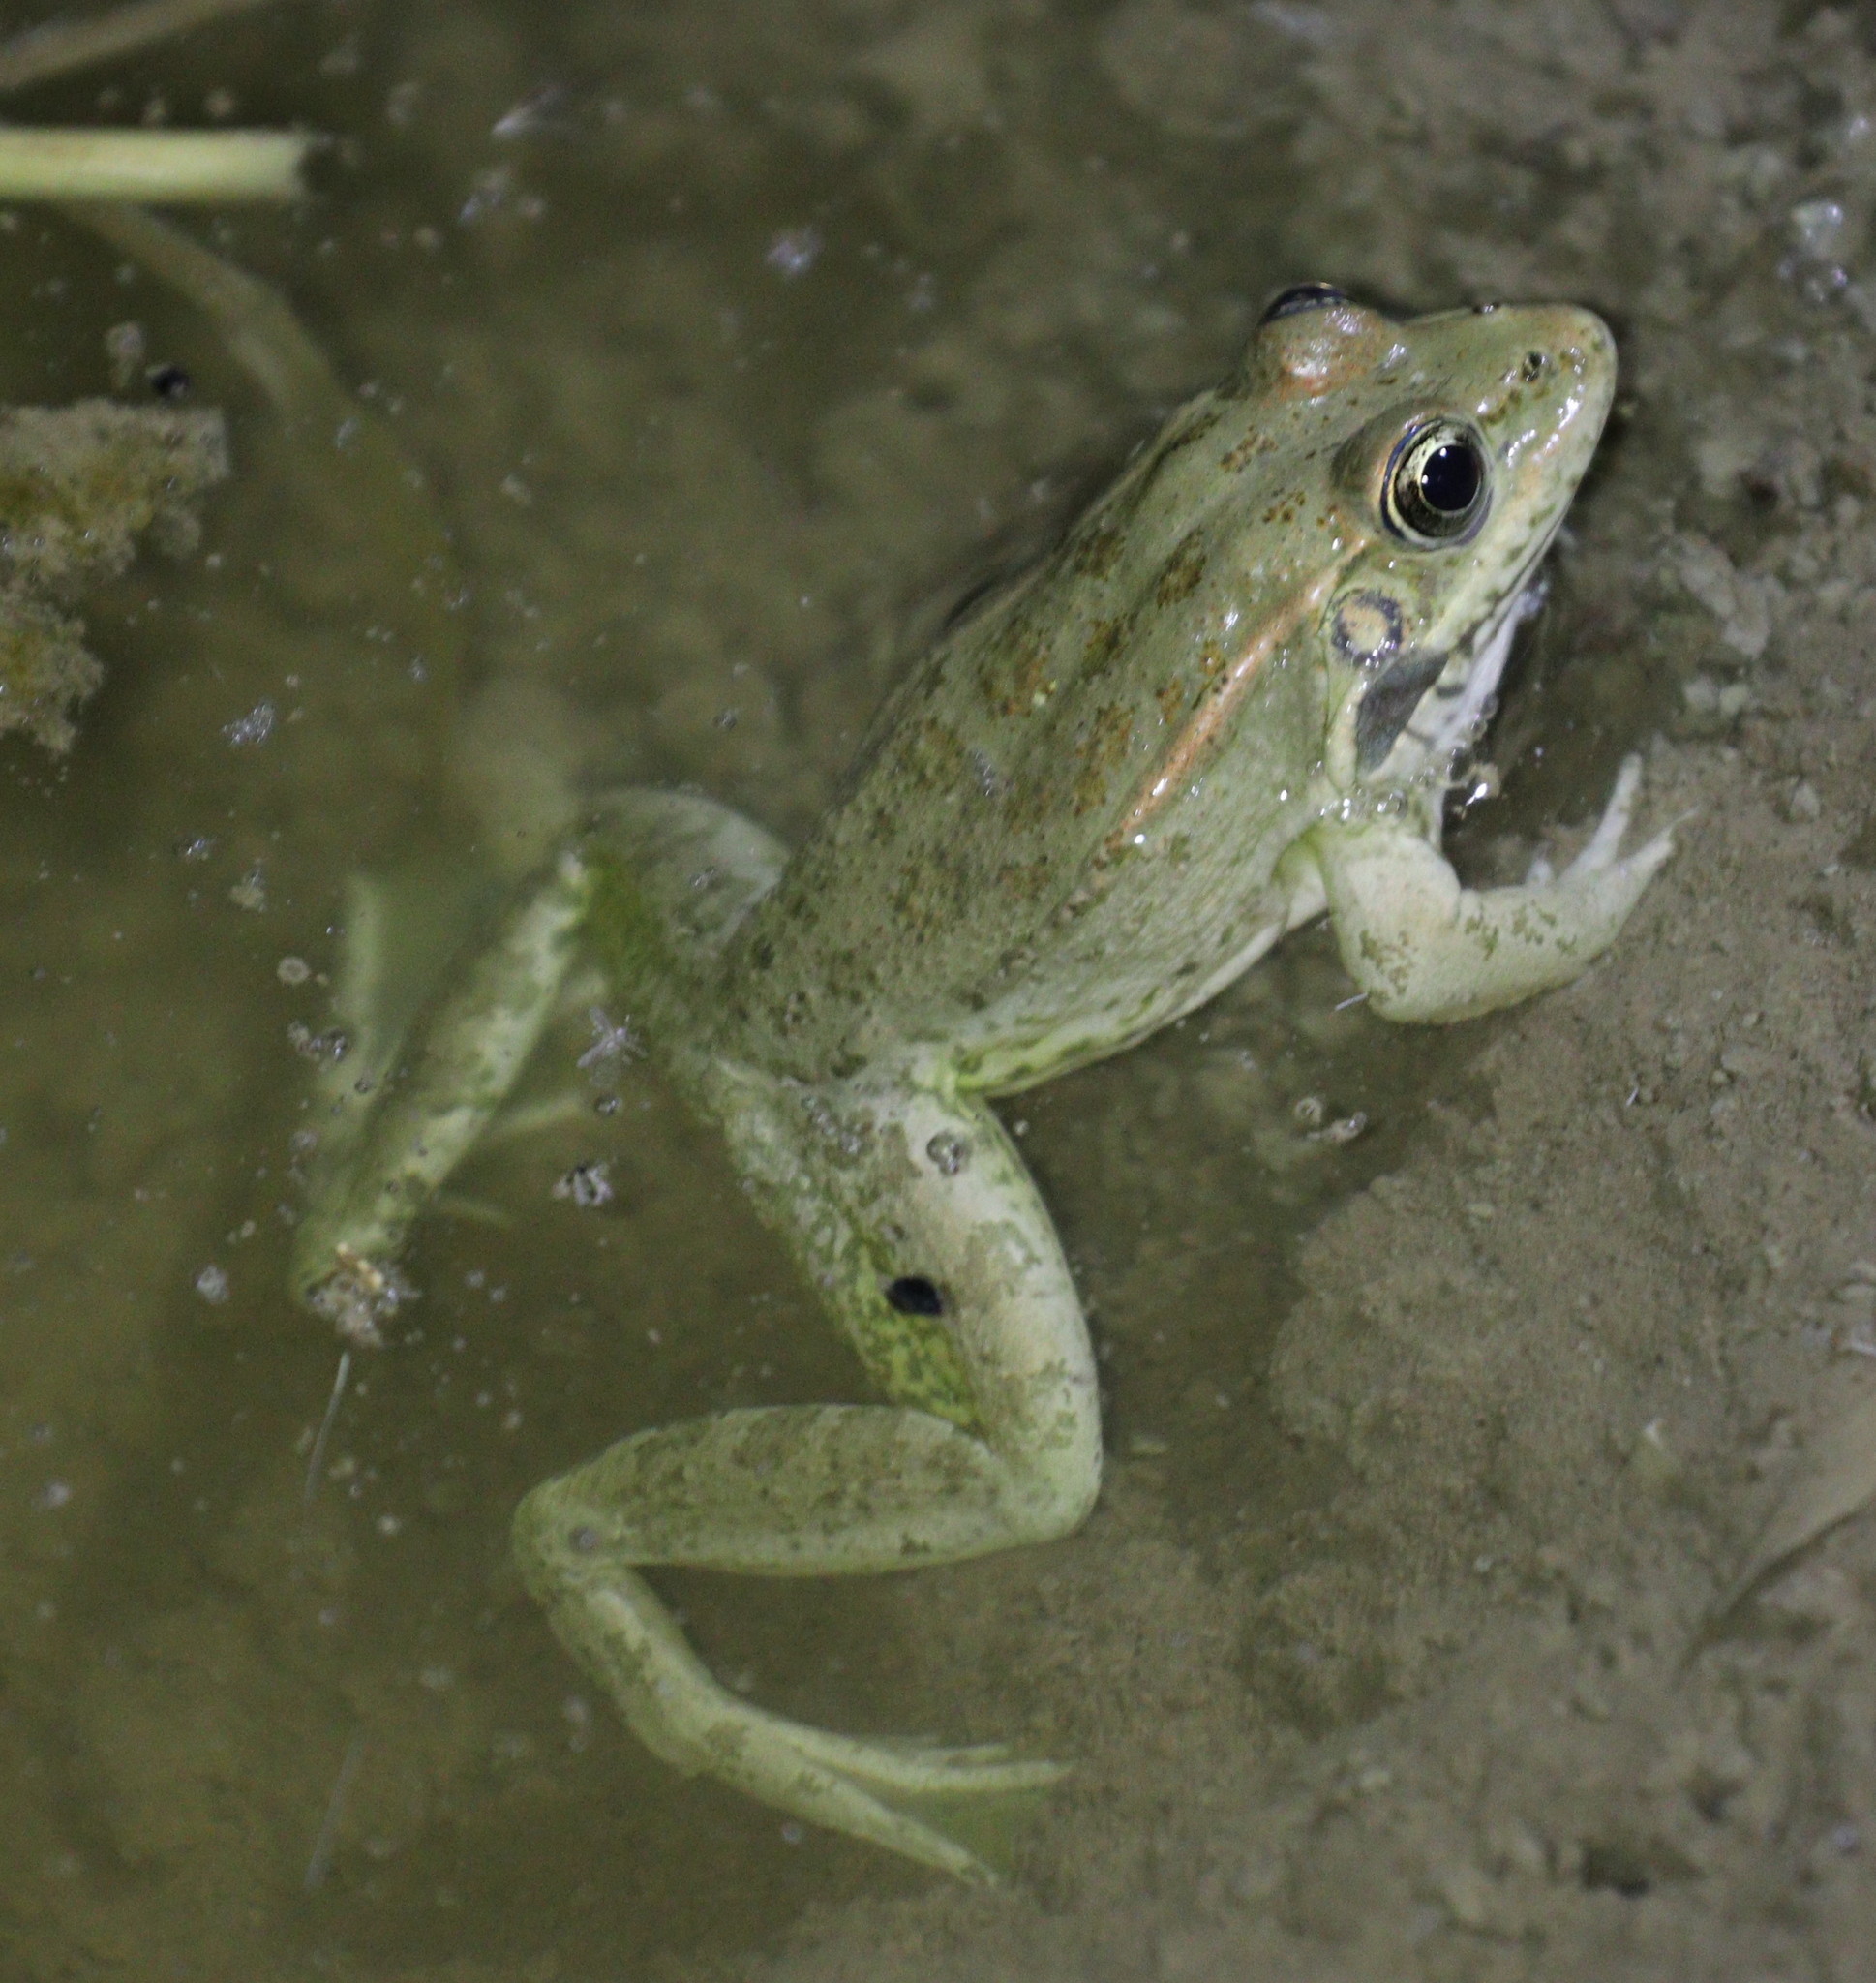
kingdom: Animalia
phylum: Chordata
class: Amphibia
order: Anura
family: Ranidae
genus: Pelophylax
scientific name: Pelophylax ridibundus
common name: Marsh frog
